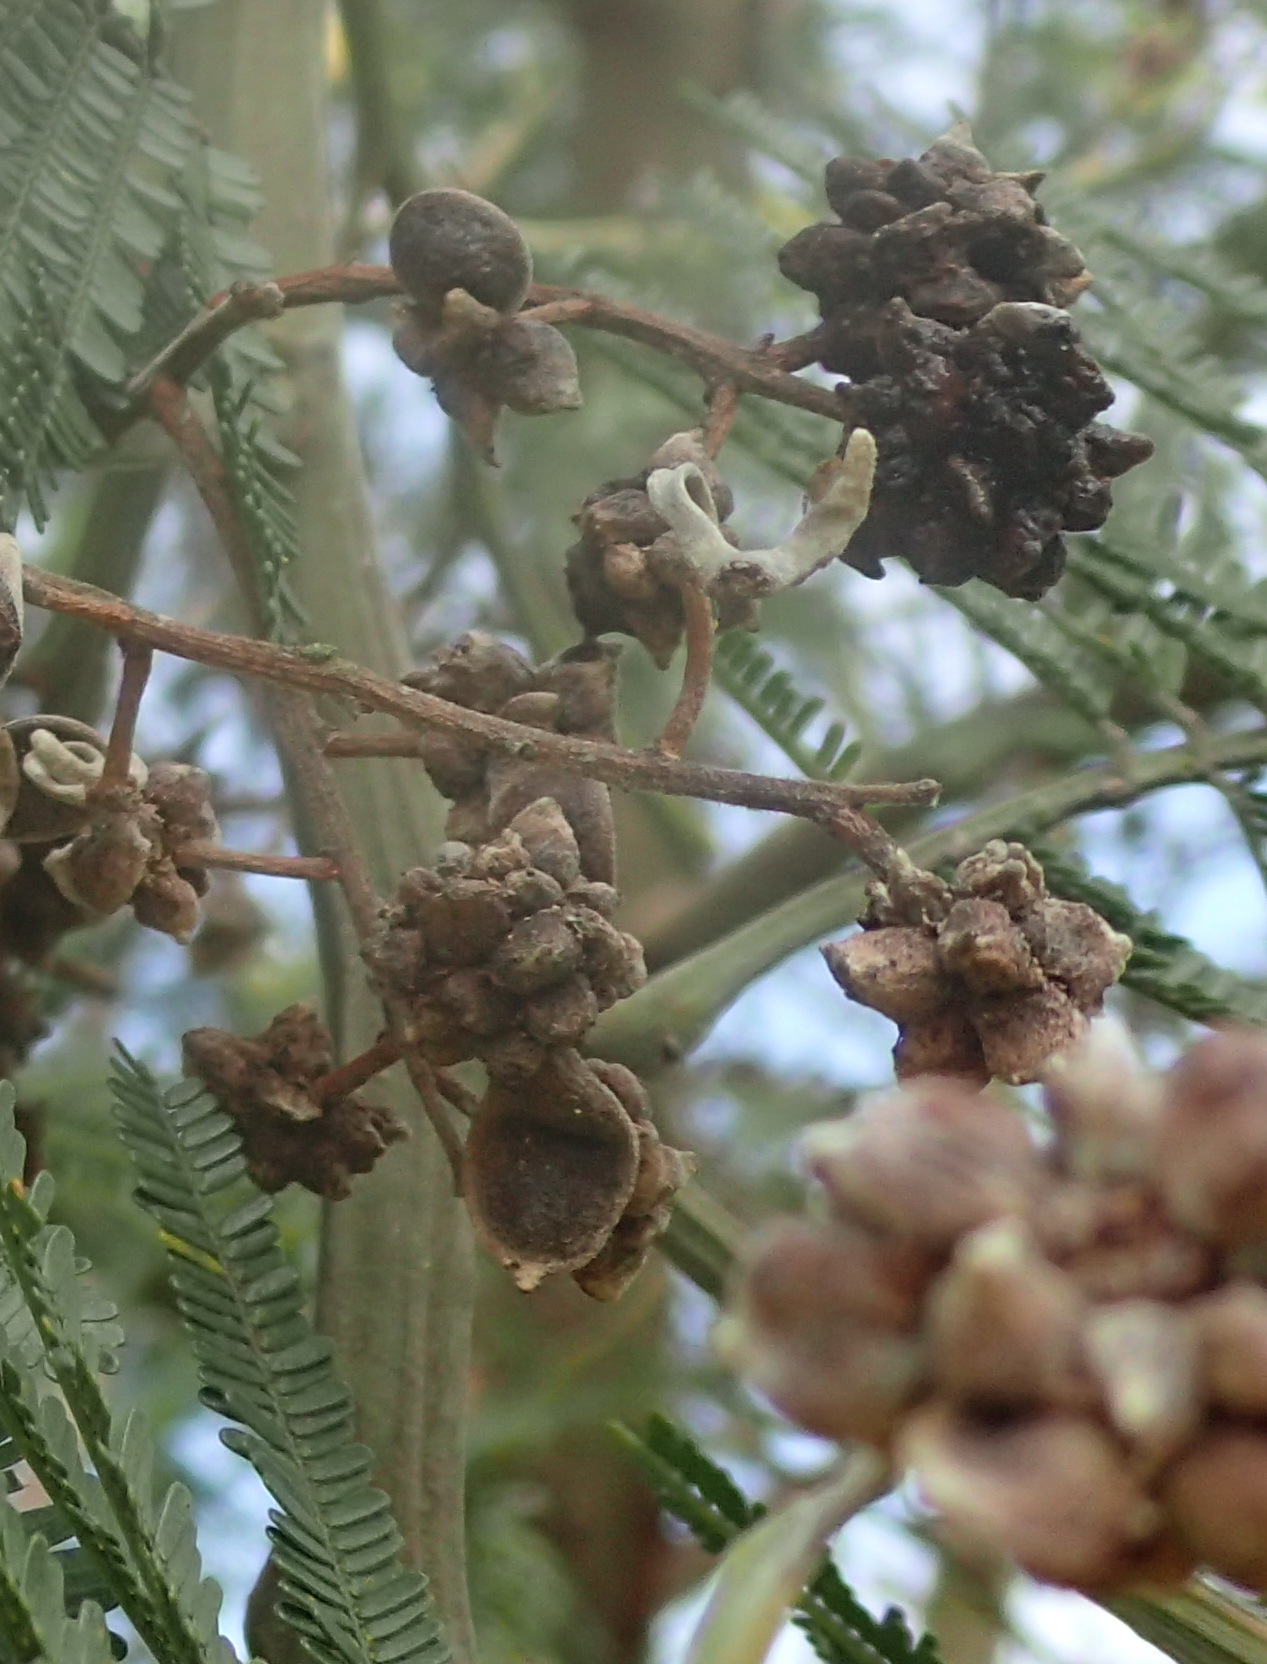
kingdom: Animalia
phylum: Arthropoda
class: Insecta
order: Diptera
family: Cecidomyiidae
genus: Dasineura
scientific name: Dasineura rubiformis
